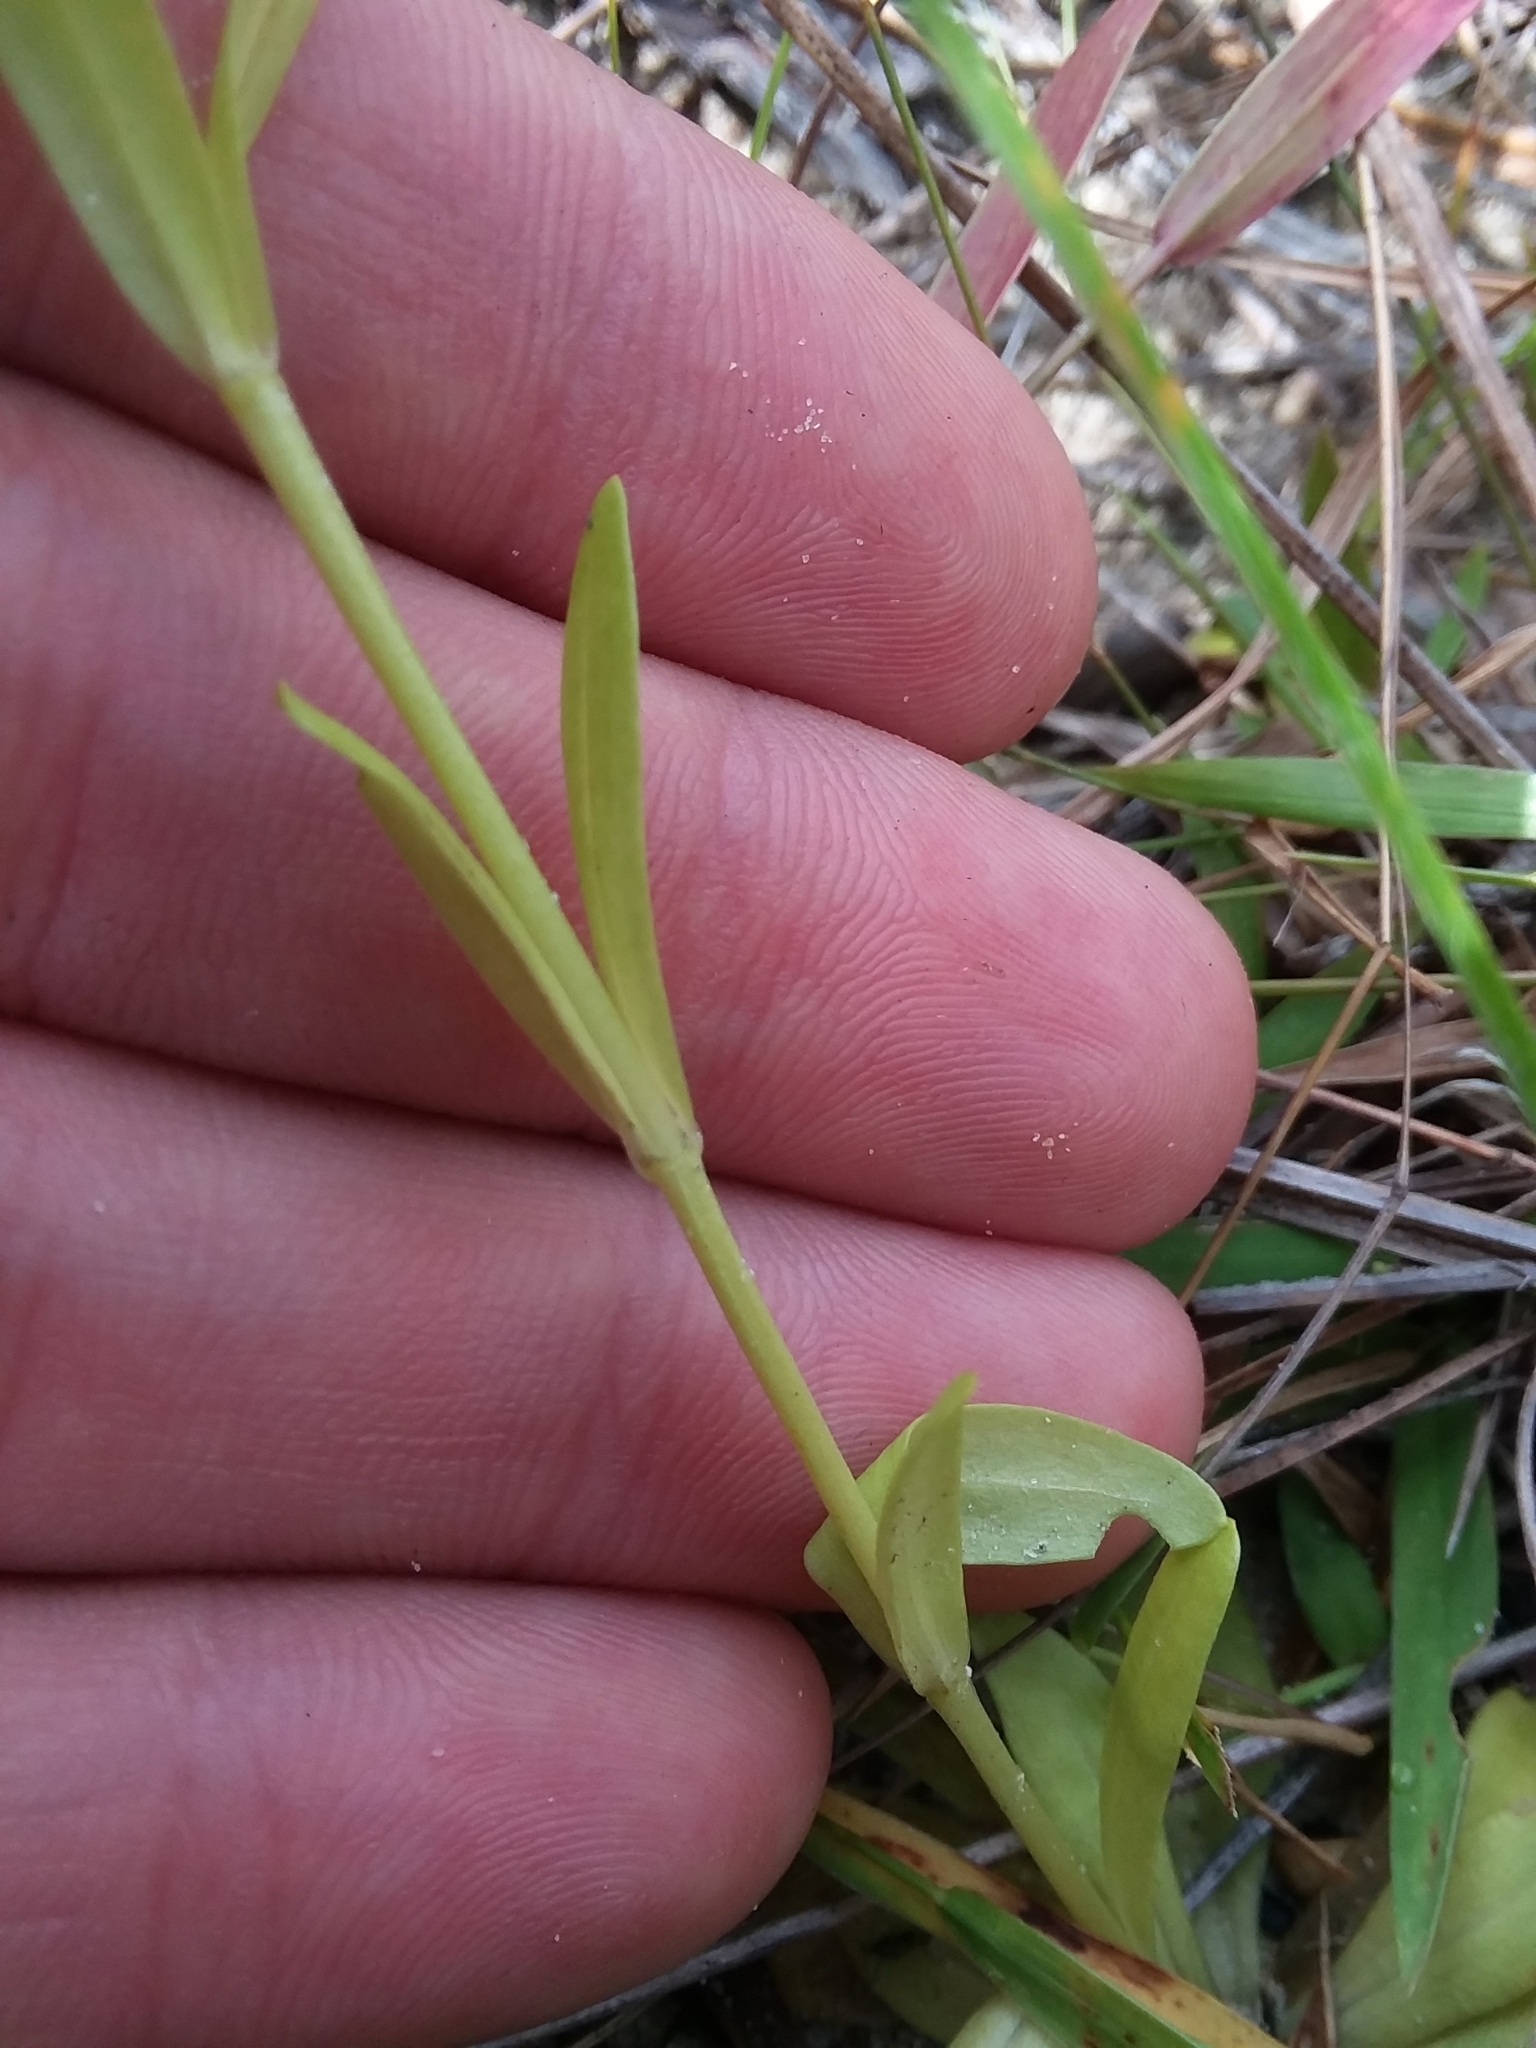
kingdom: Plantae
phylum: Tracheophyta
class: Magnoliopsida
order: Gentianales
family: Gentianaceae
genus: Sabatia
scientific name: Sabatia brachiata
